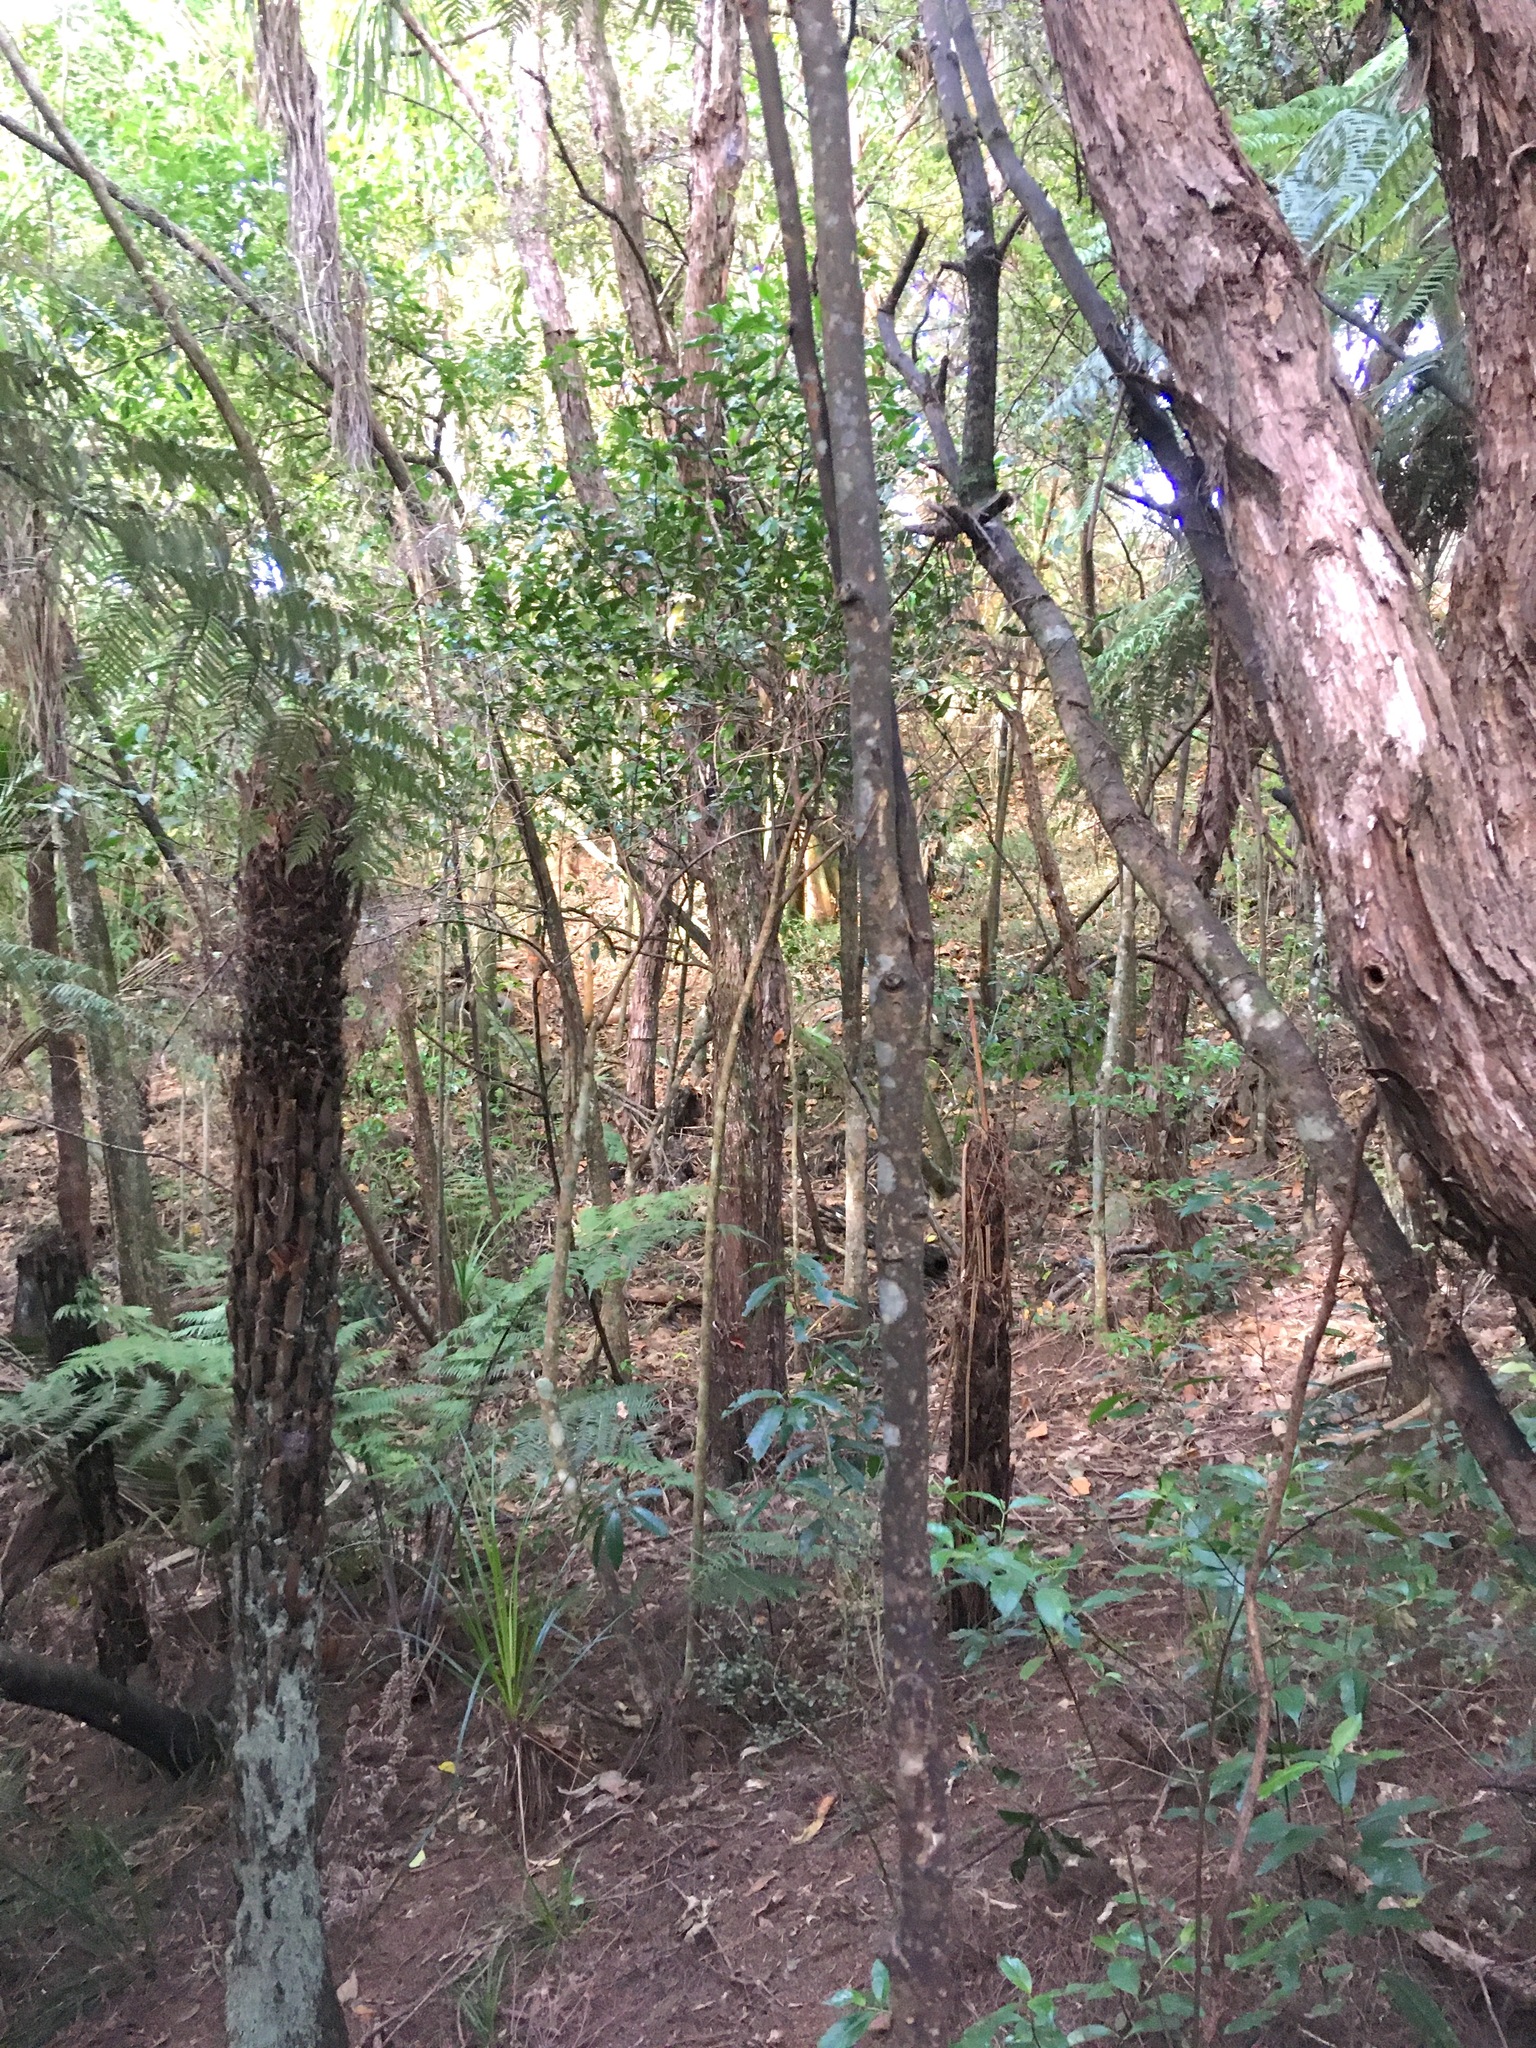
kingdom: Plantae
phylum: Tracheophyta
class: Magnoliopsida
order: Laurales
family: Monimiaceae
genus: Hedycarya
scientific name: Hedycarya arborea
